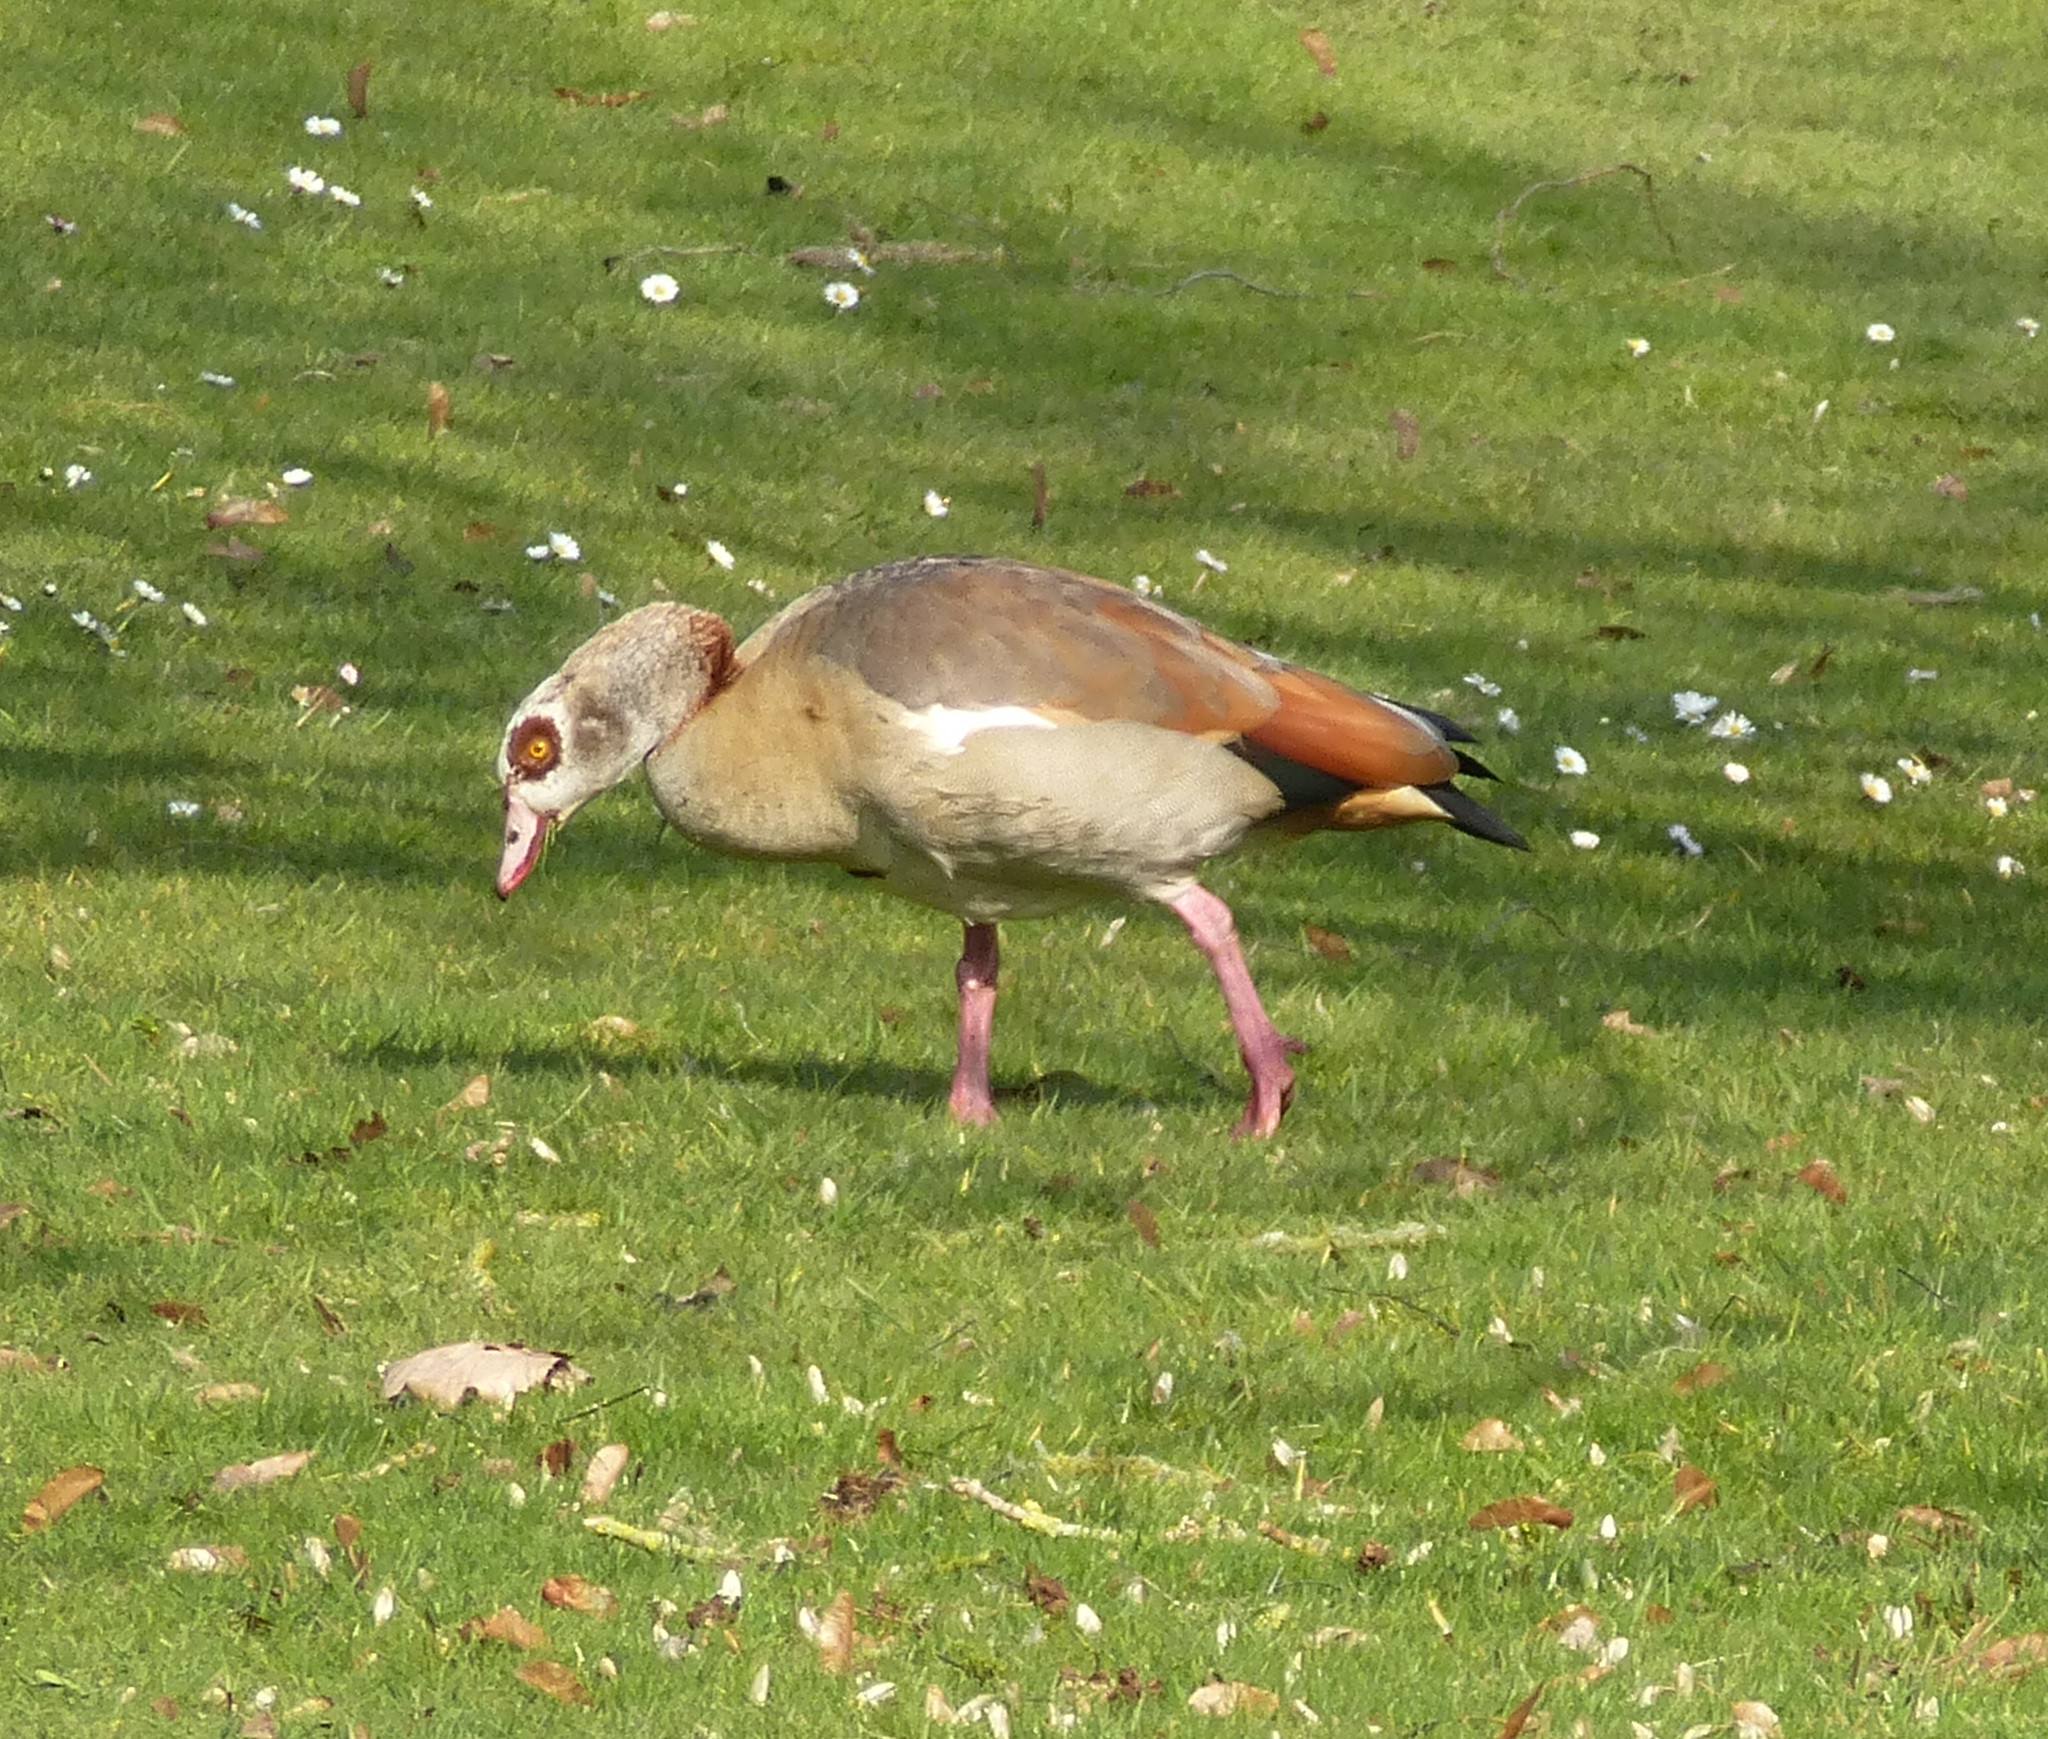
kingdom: Animalia
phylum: Chordata
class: Aves
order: Anseriformes
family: Anatidae
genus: Alopochen
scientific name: Alopochen aegyptiaca
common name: Egyptian goose
